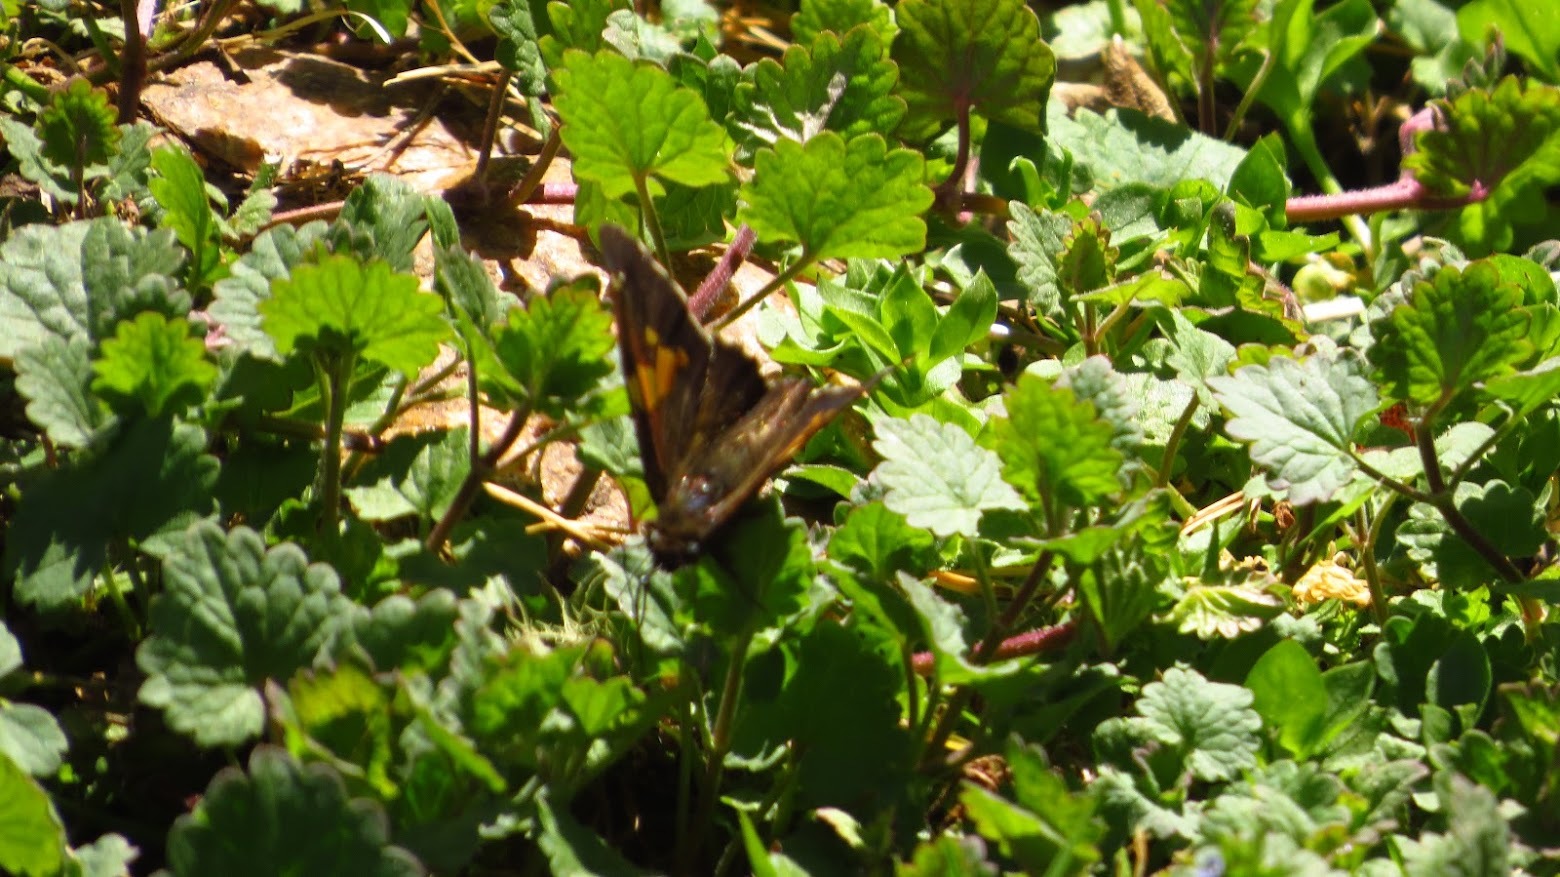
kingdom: Animalia
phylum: Arthropoda
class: Insecta
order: Lepidoptera
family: Hesperiidae
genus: Epargyreus
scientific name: Epargyreus clarus
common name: Silver-spotted skipper
